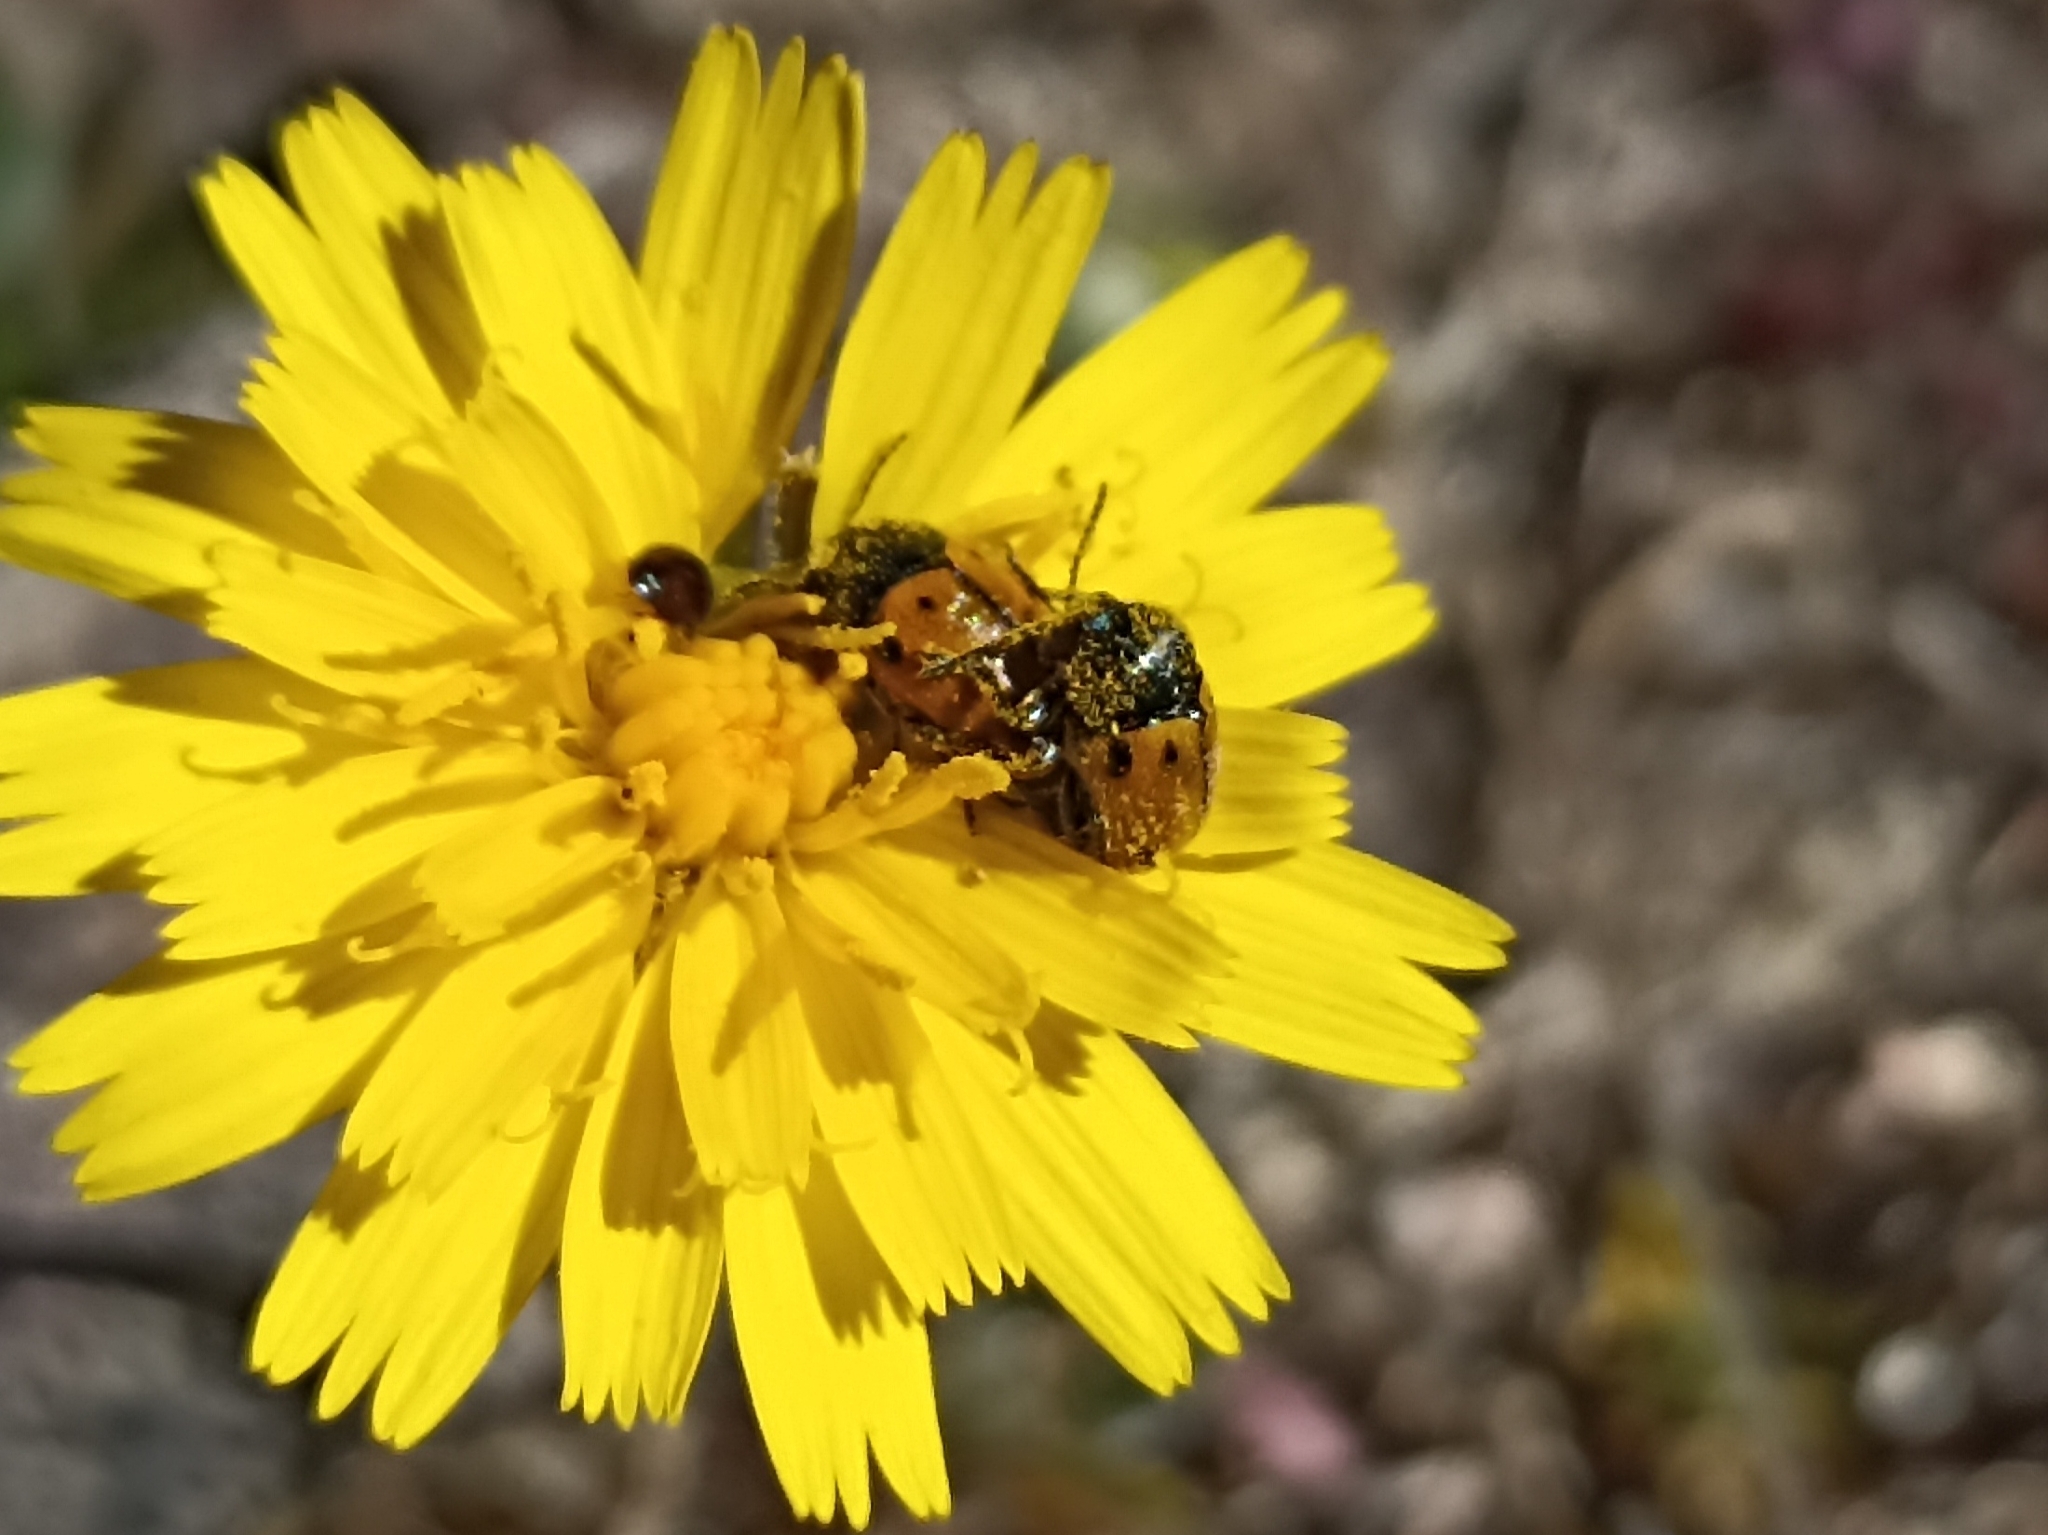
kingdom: Animalia
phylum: Arthropoda
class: Insecta
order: Coleoptera
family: Chrysomelidae
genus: Cryptocephalus
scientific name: Cryptocephalus rugicollis
